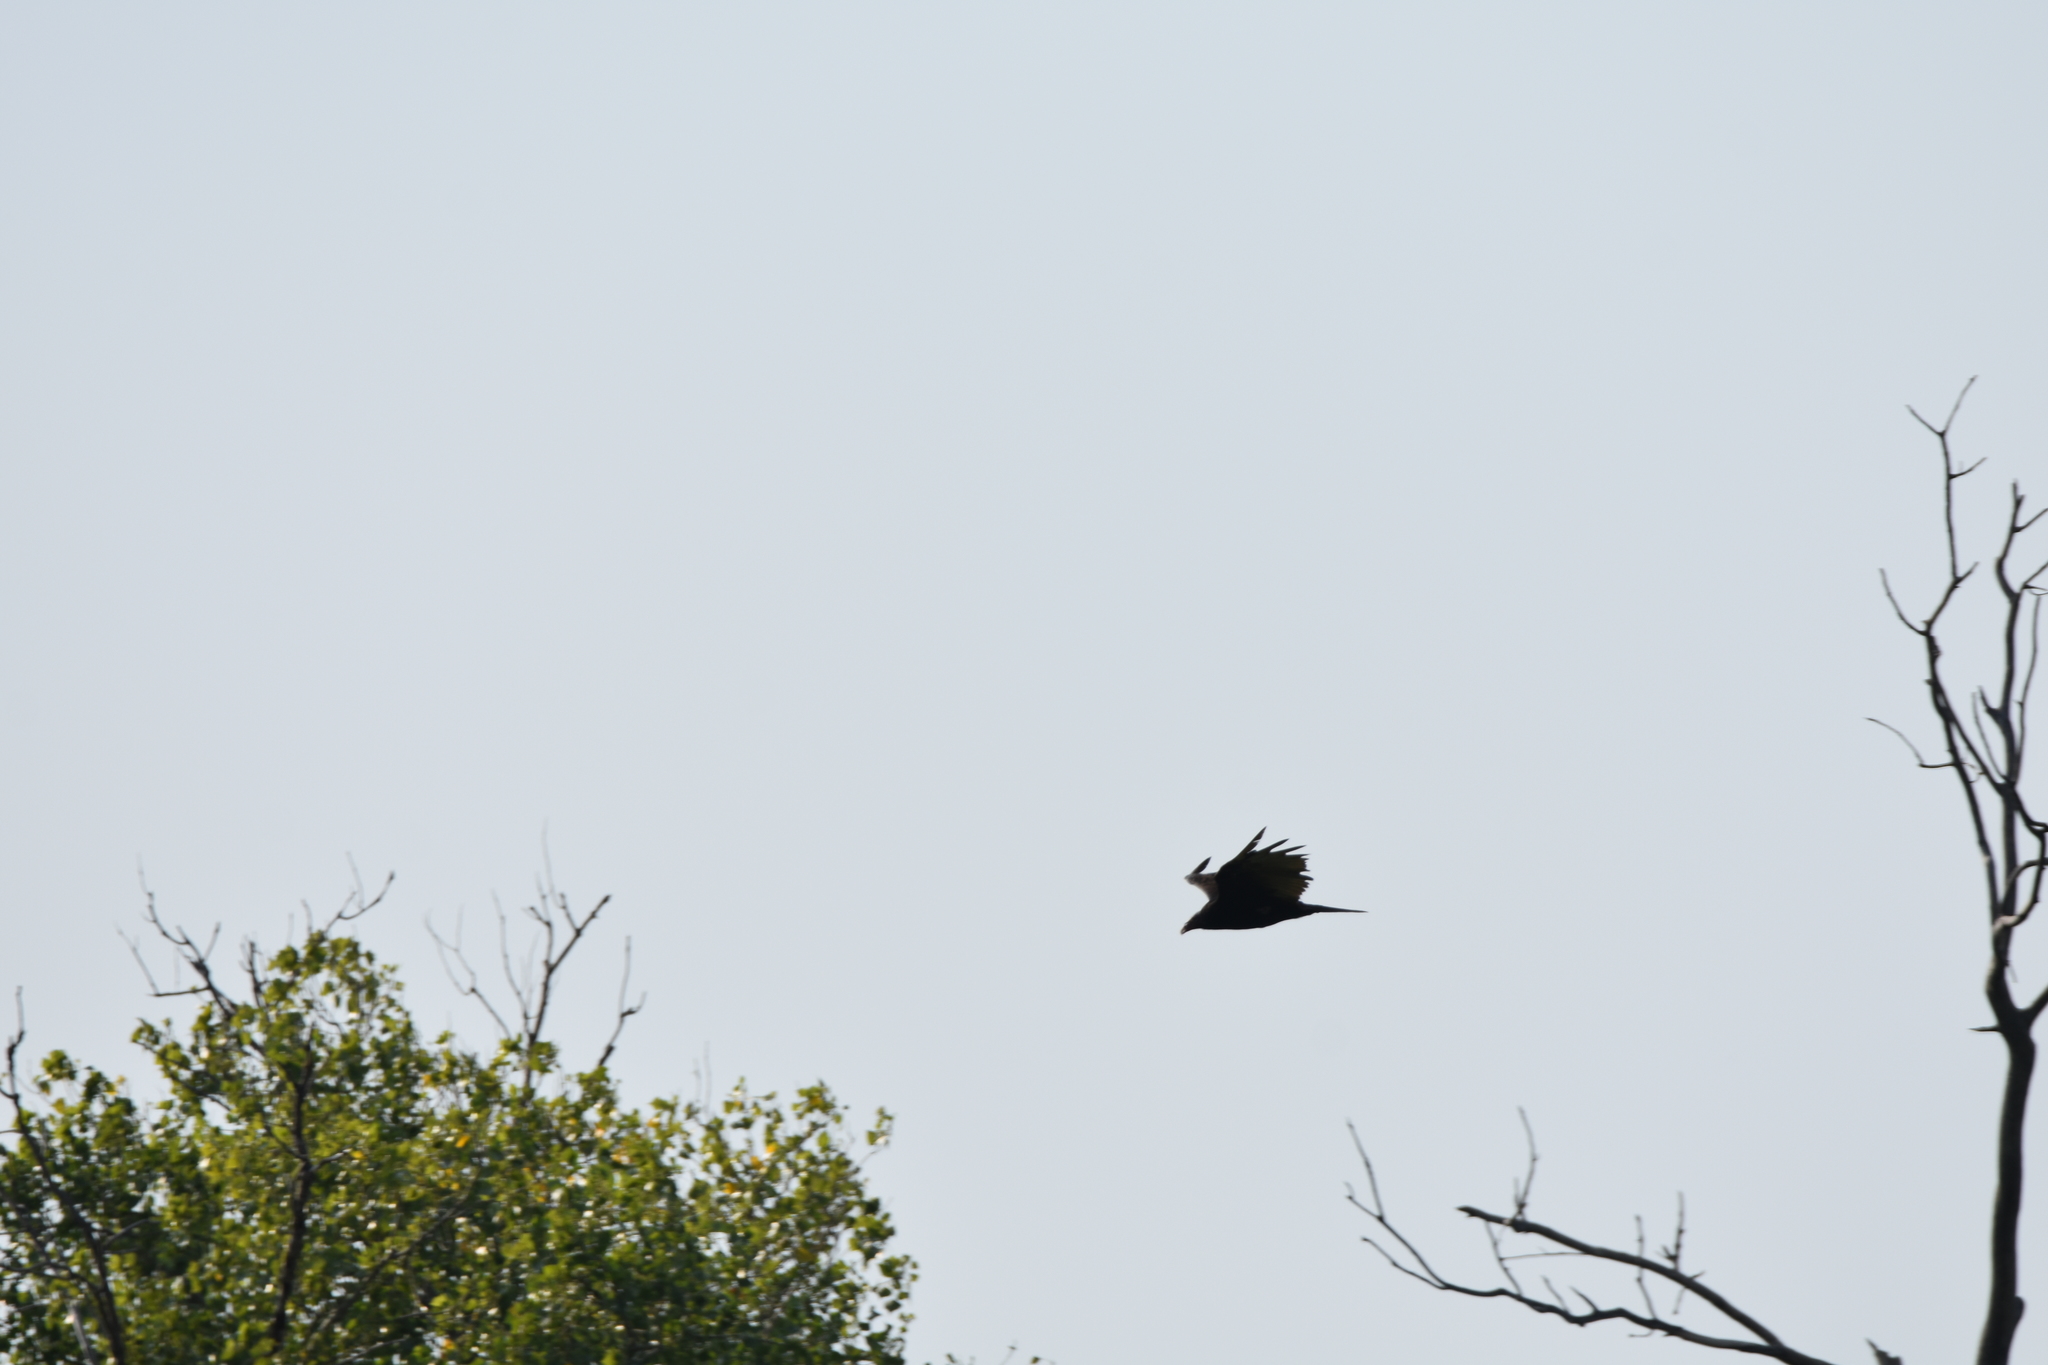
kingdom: Animalia
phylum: Chordata
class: Aves
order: Accipitriformes
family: Cathartidae
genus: Cathartes
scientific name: Cathartes aura
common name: Turkey vulture
